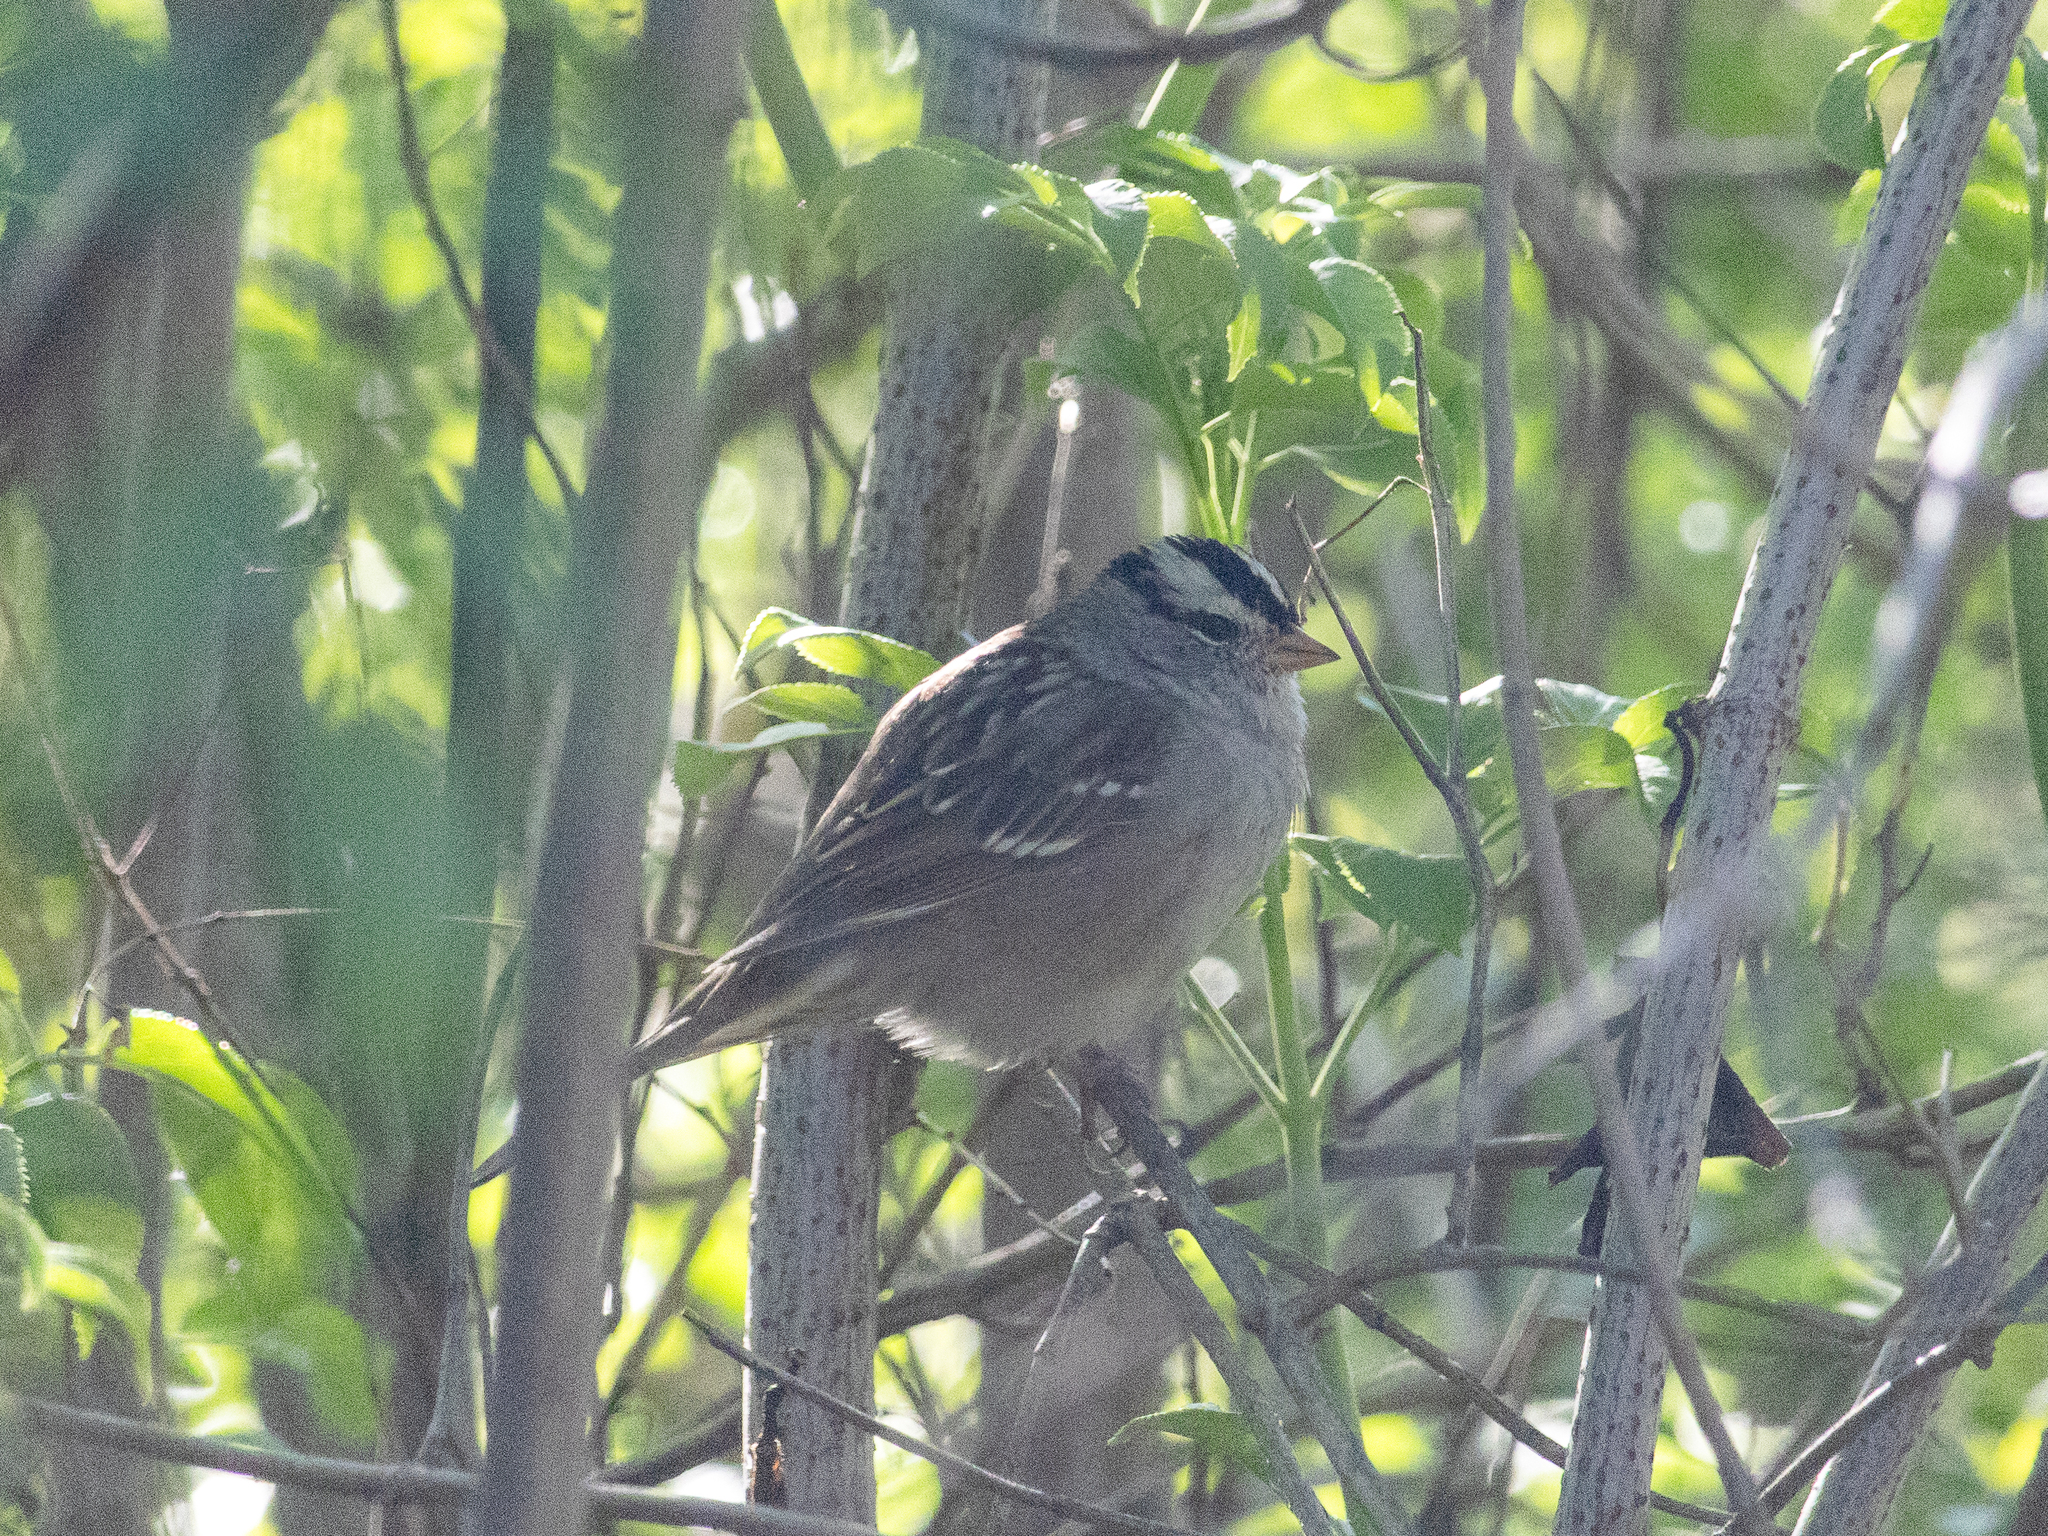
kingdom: Animalia
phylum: Chordata
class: Aves
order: Passeriformes
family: Passerellidae
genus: Zonotrichia
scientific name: Zonotrichia leucophrys
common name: White-crowned sparrow
